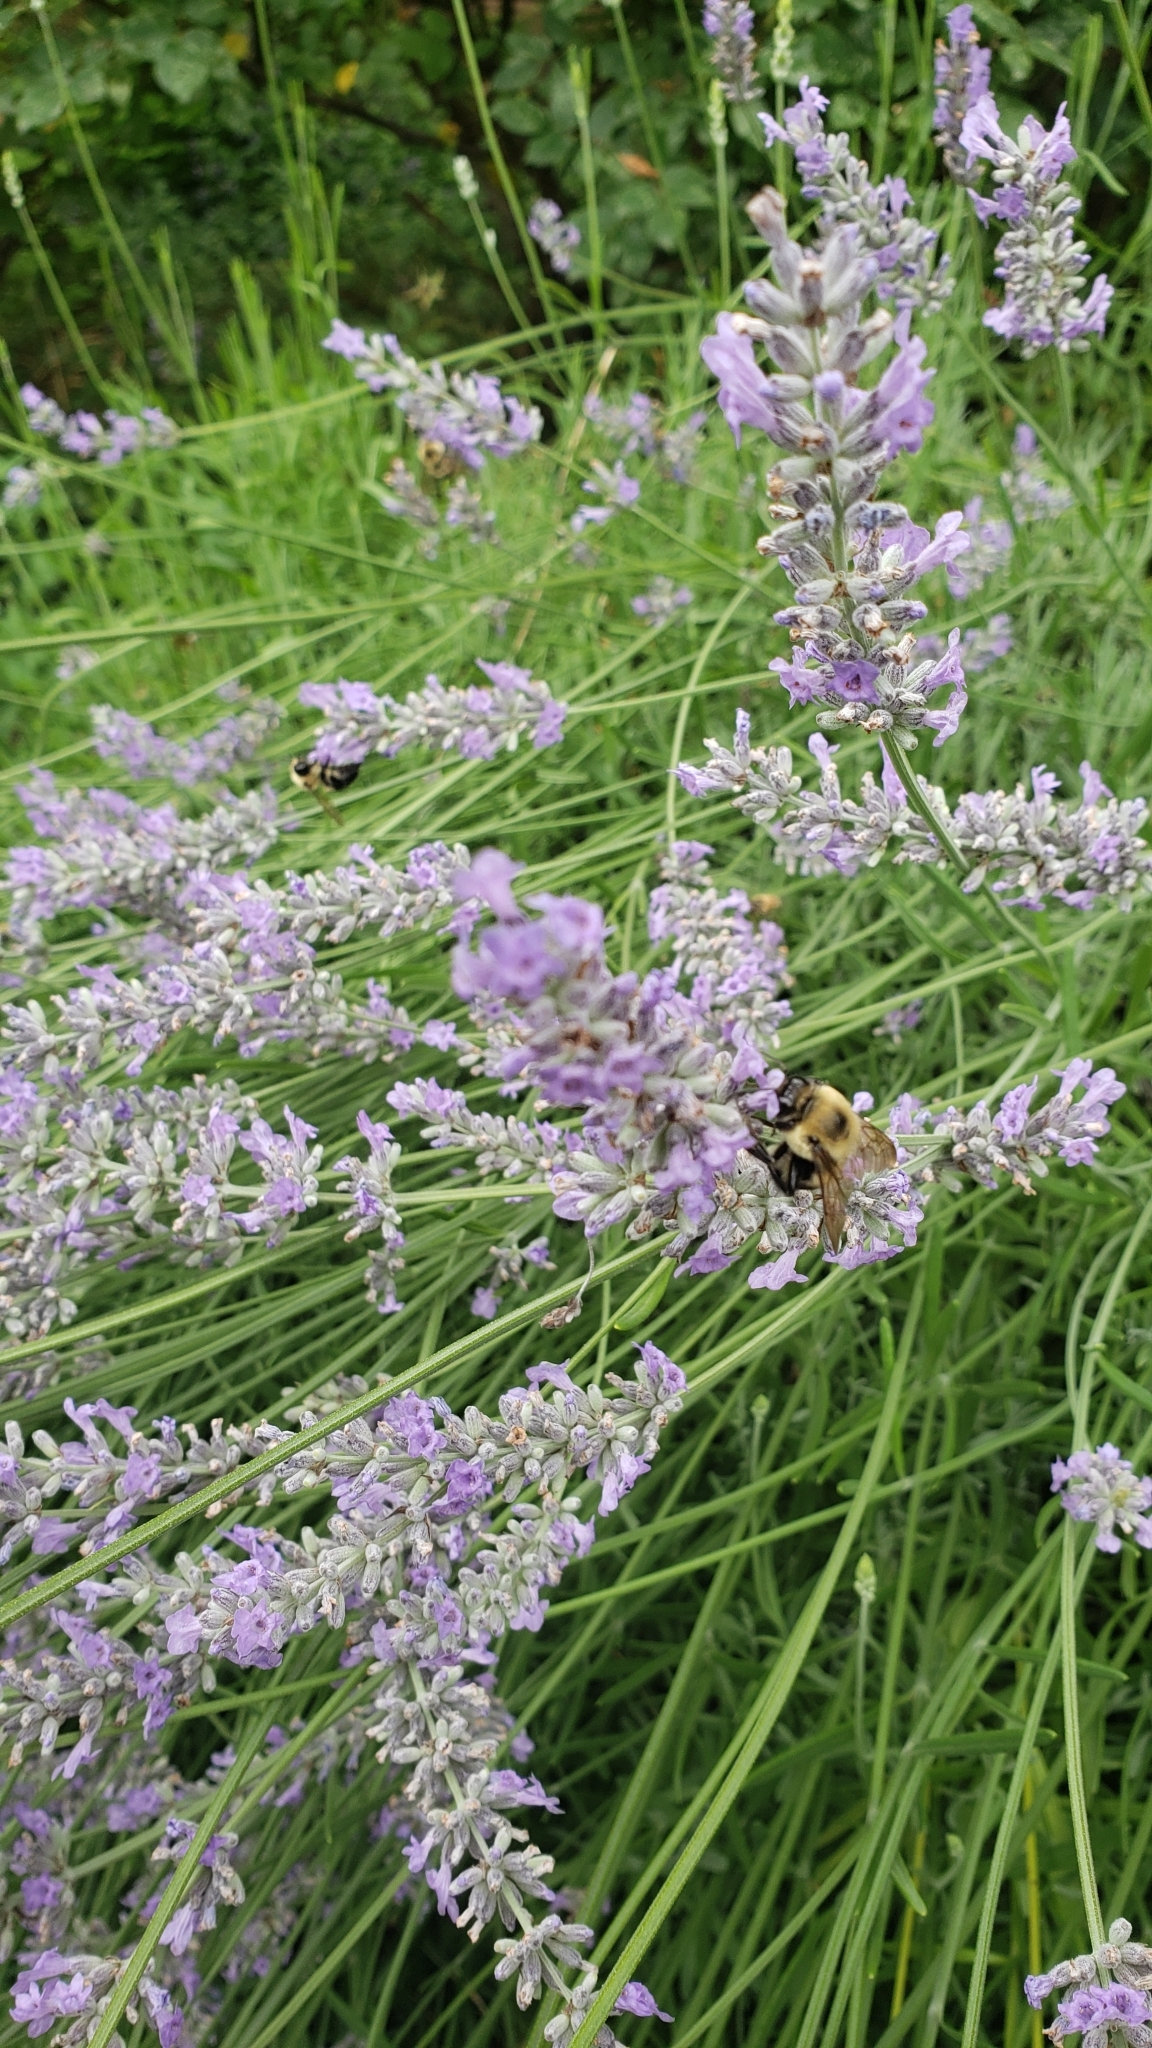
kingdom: Animalia
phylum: Arthropoda
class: Insecta
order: Hymenoptera
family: Apidae
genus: Bombus
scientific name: Bombus griseocollis
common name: Brown-belted bumble bee
